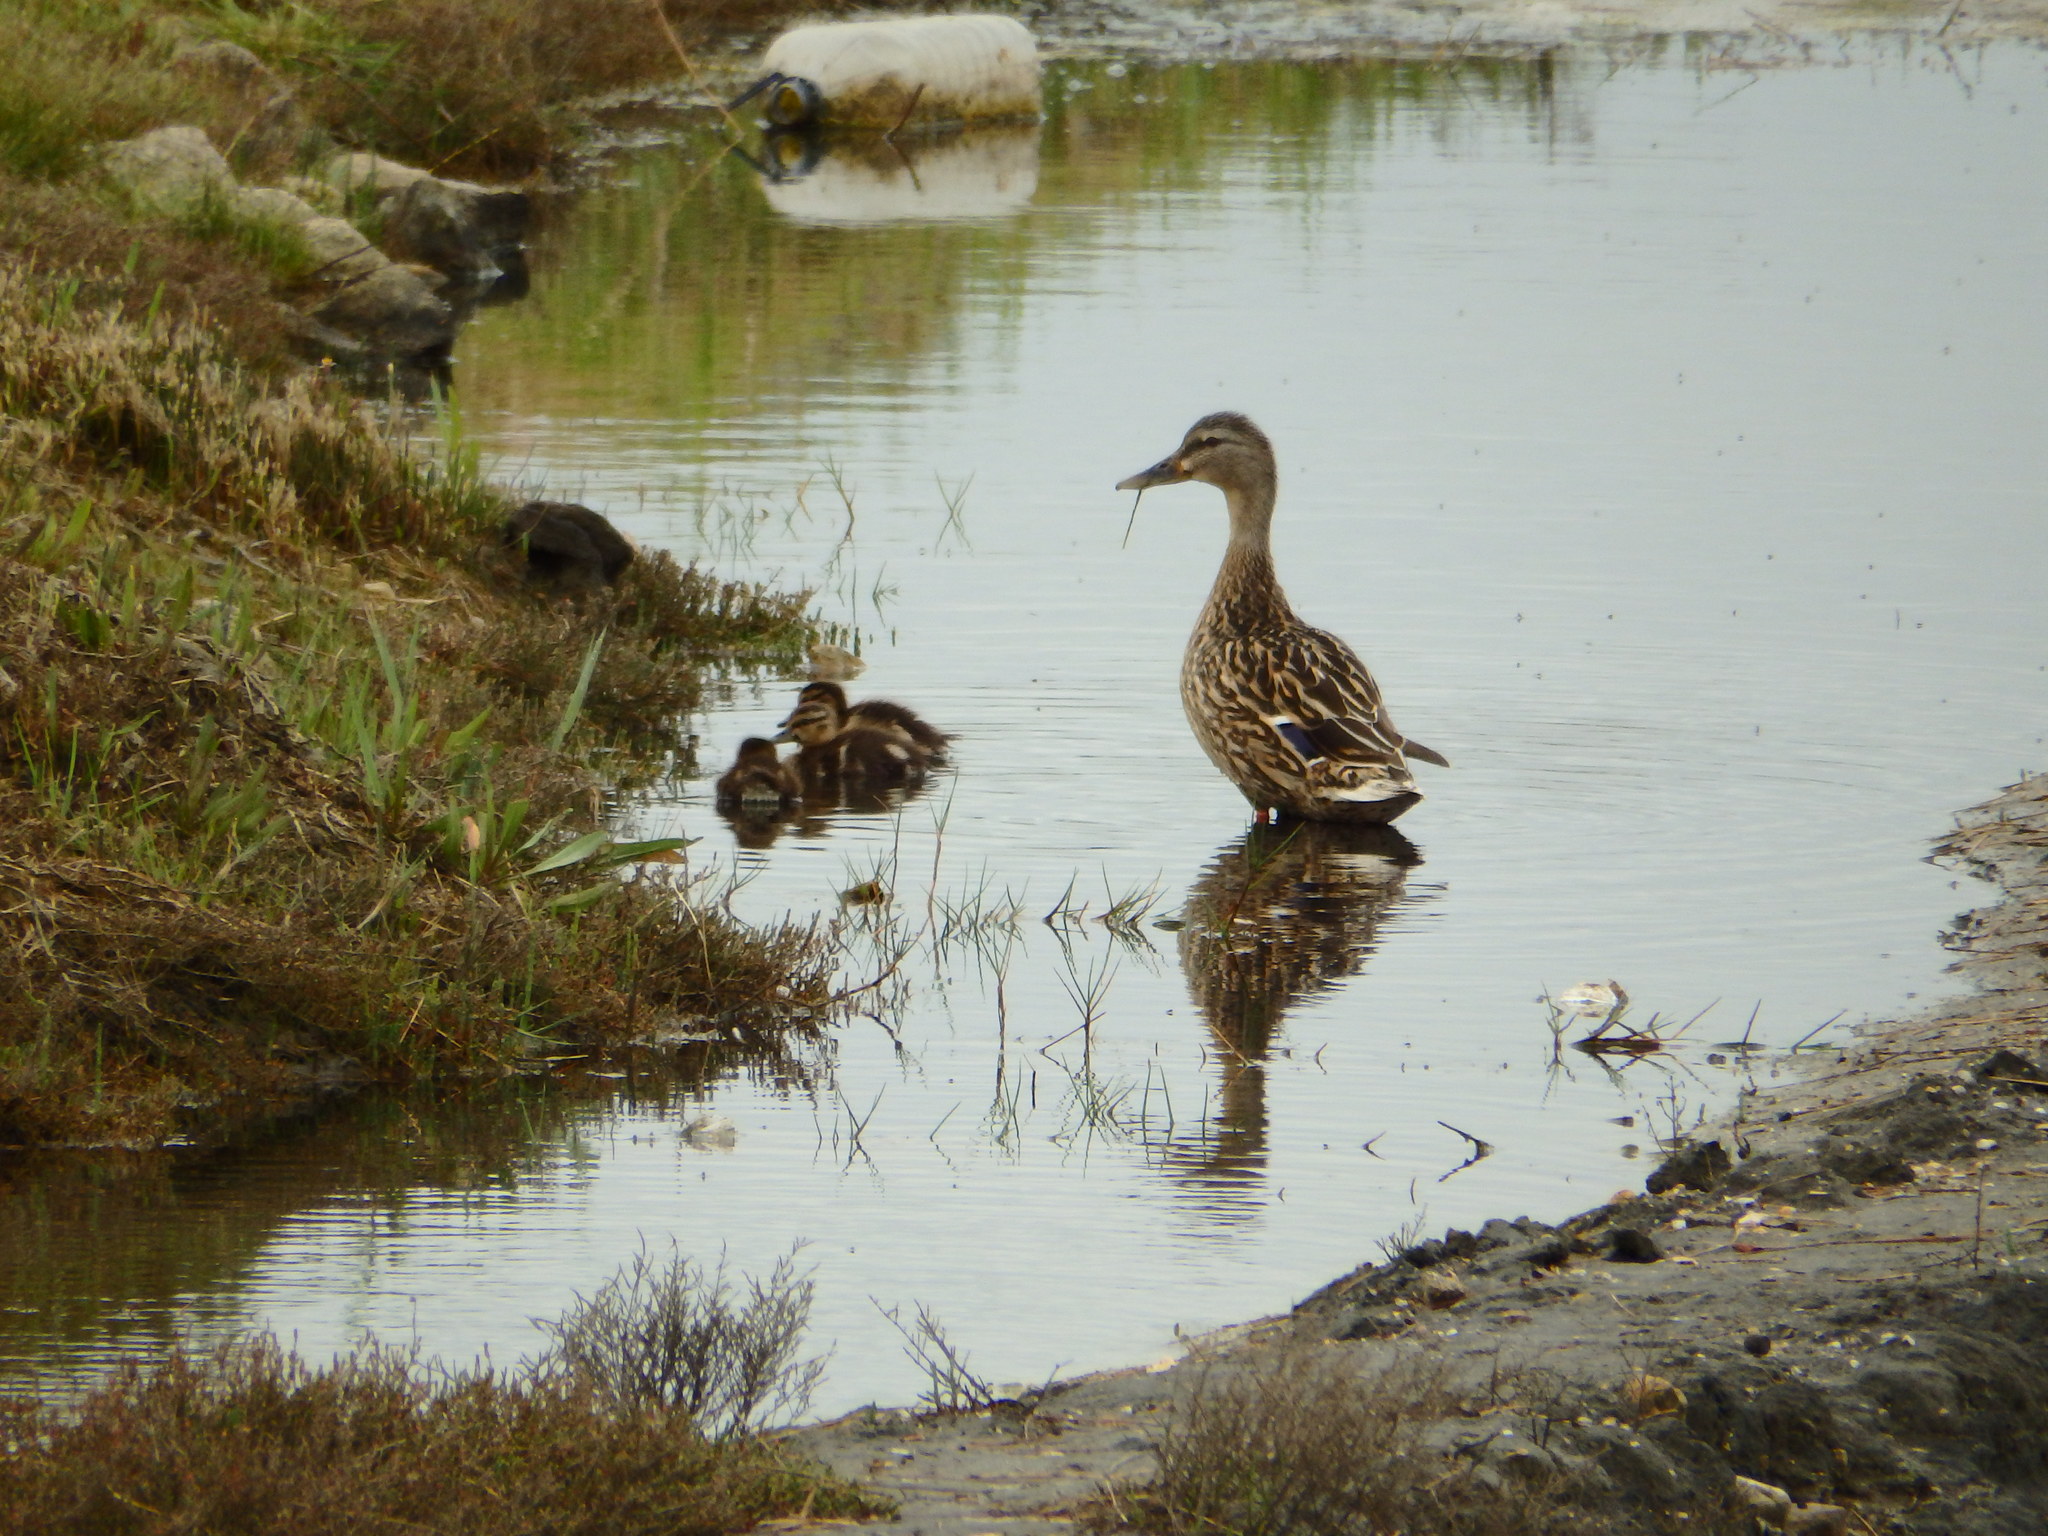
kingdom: Animalia
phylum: Chordata
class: Aves
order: Anseriformes
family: Anatidae
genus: Anas
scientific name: Anas platyrhynchos
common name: Mallard
